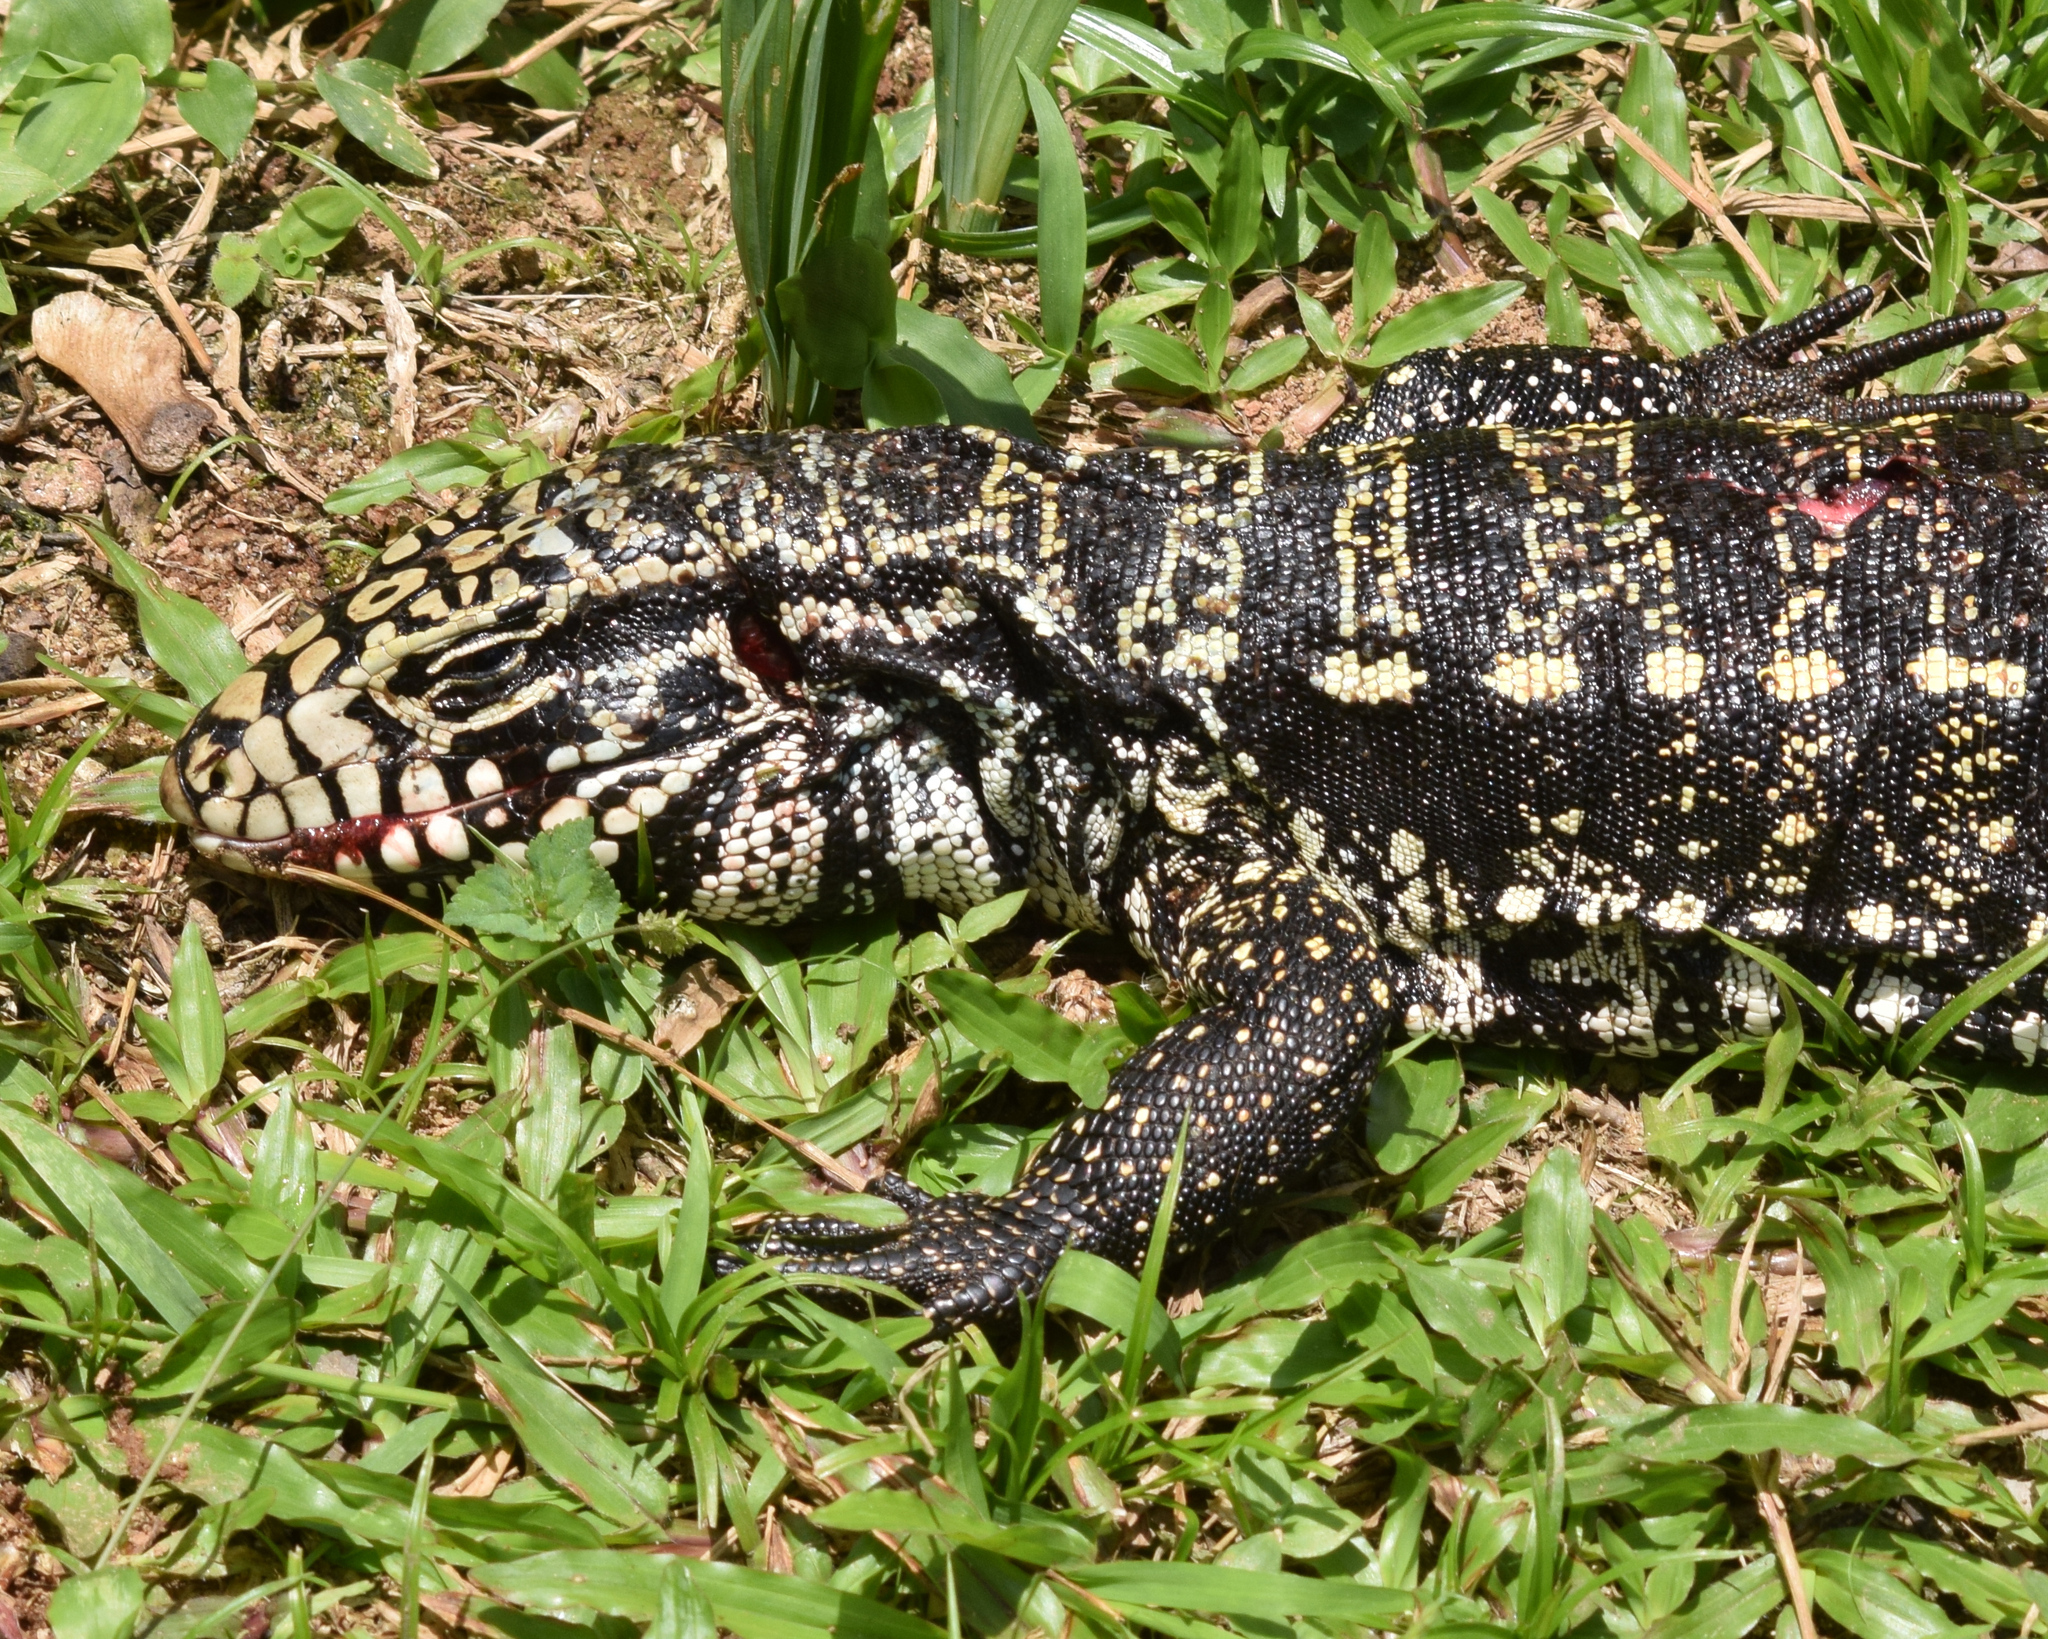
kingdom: Animalia
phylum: Chordata
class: Squamata
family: Teiidae
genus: Salvator
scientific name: Salvator merianae
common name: Argentine black and white tegu
